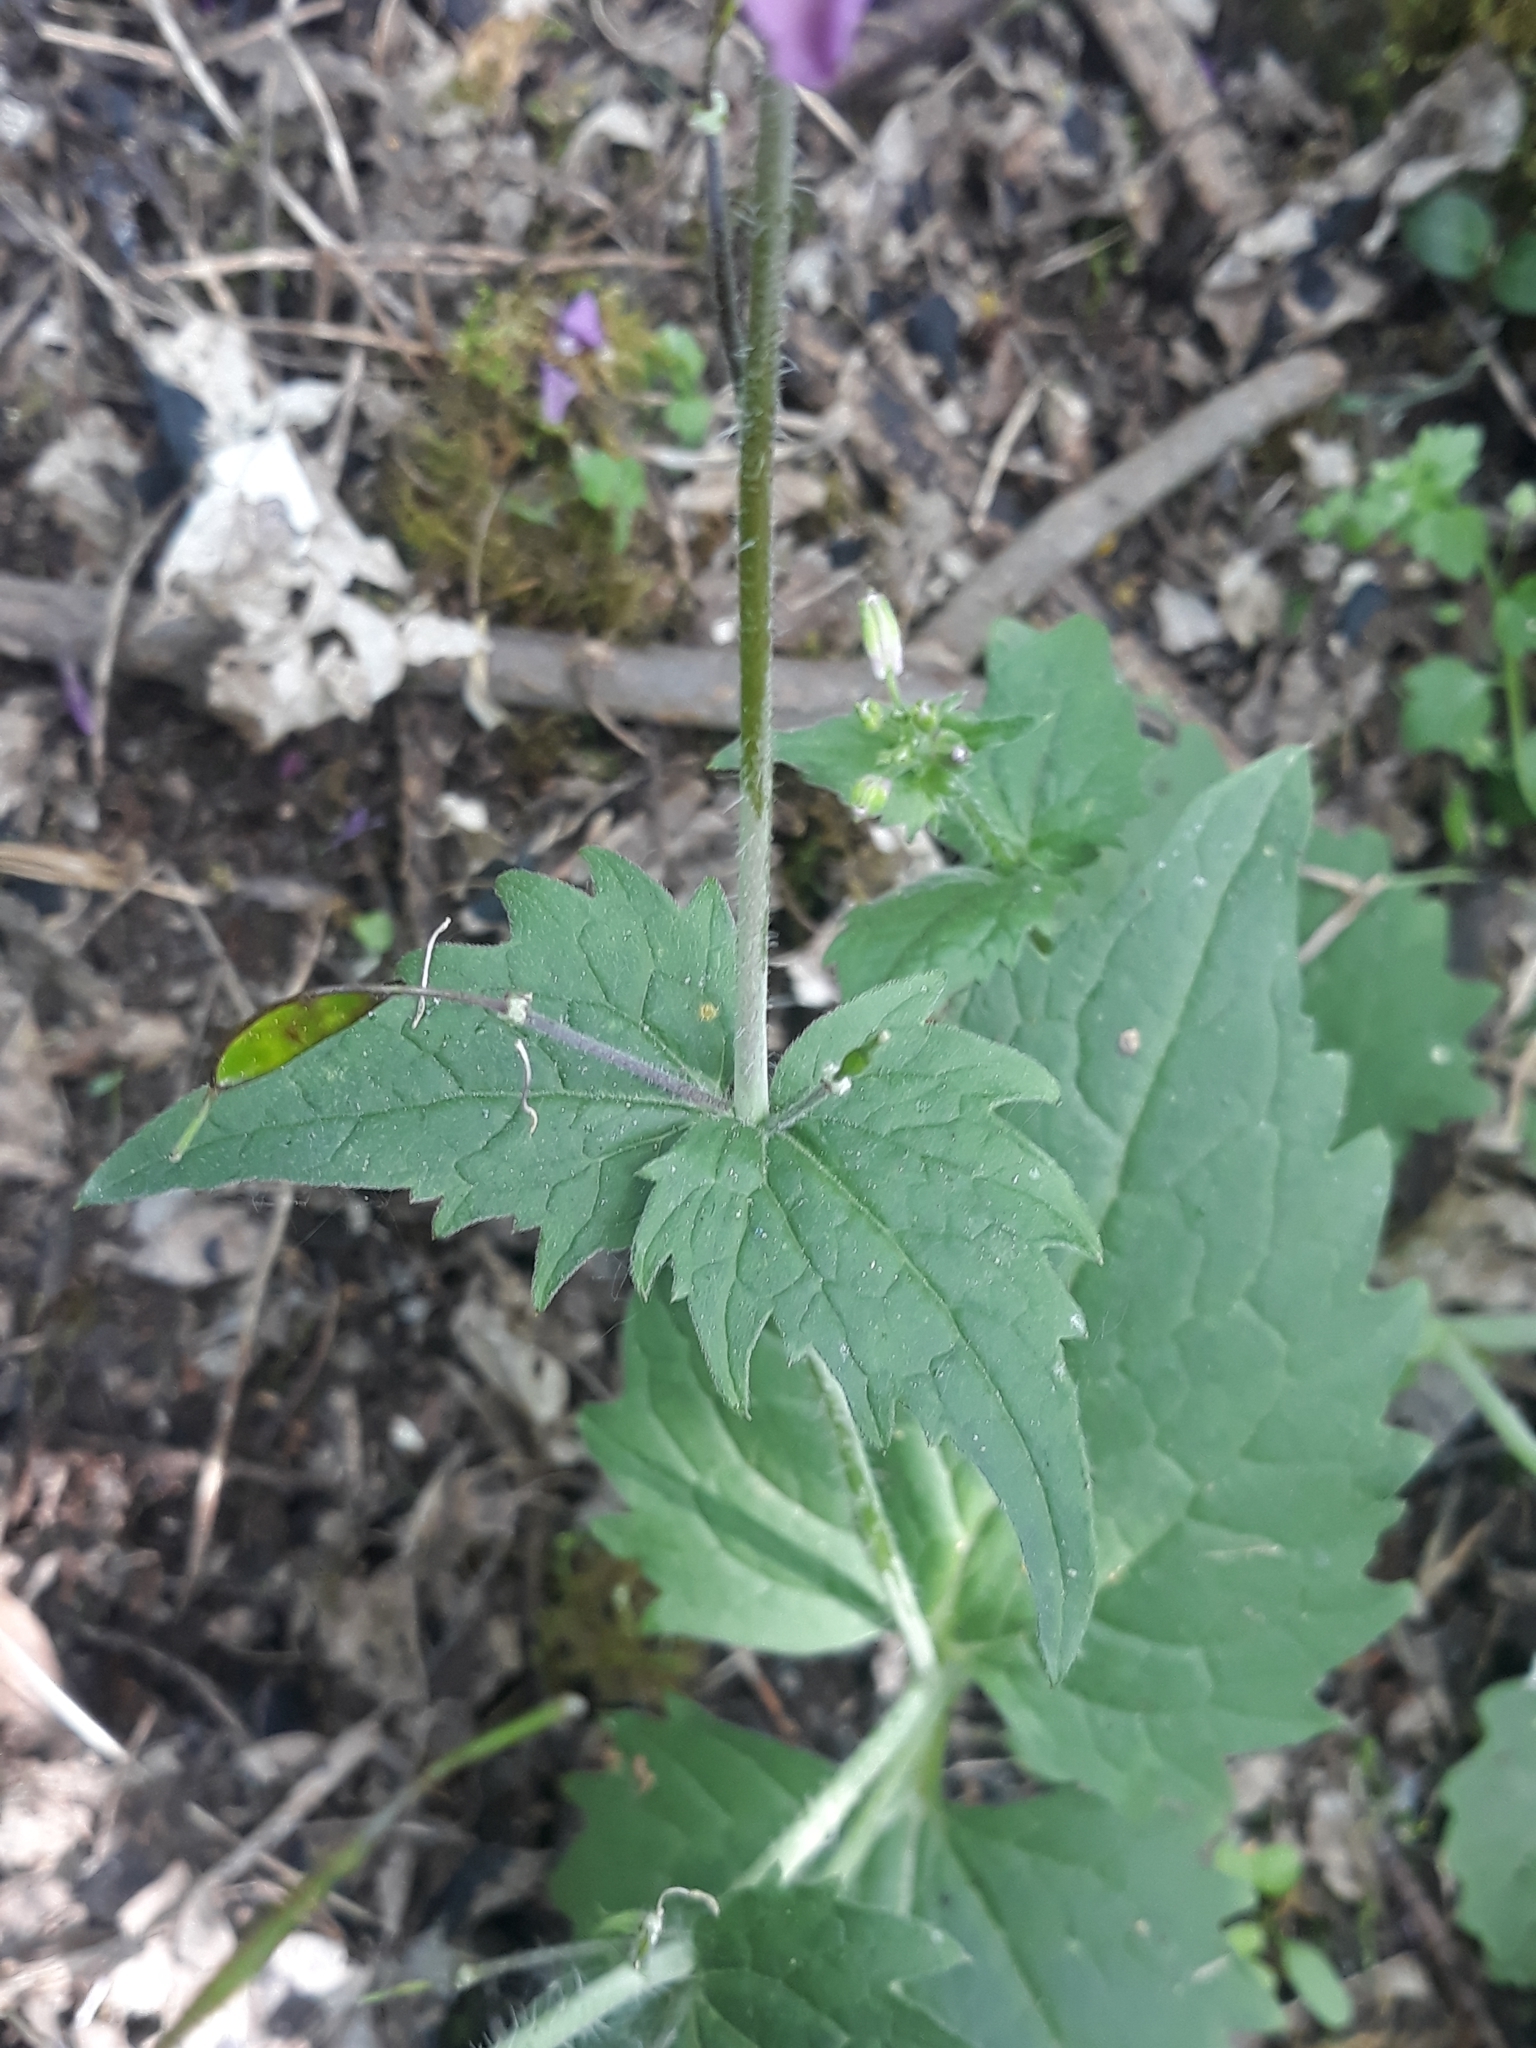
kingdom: Plantae
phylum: Tracheophyta
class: Magnoliopsida
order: Brassicales
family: Brassicaceae
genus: Lunaria
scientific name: Lunaria annua
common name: Honesty
